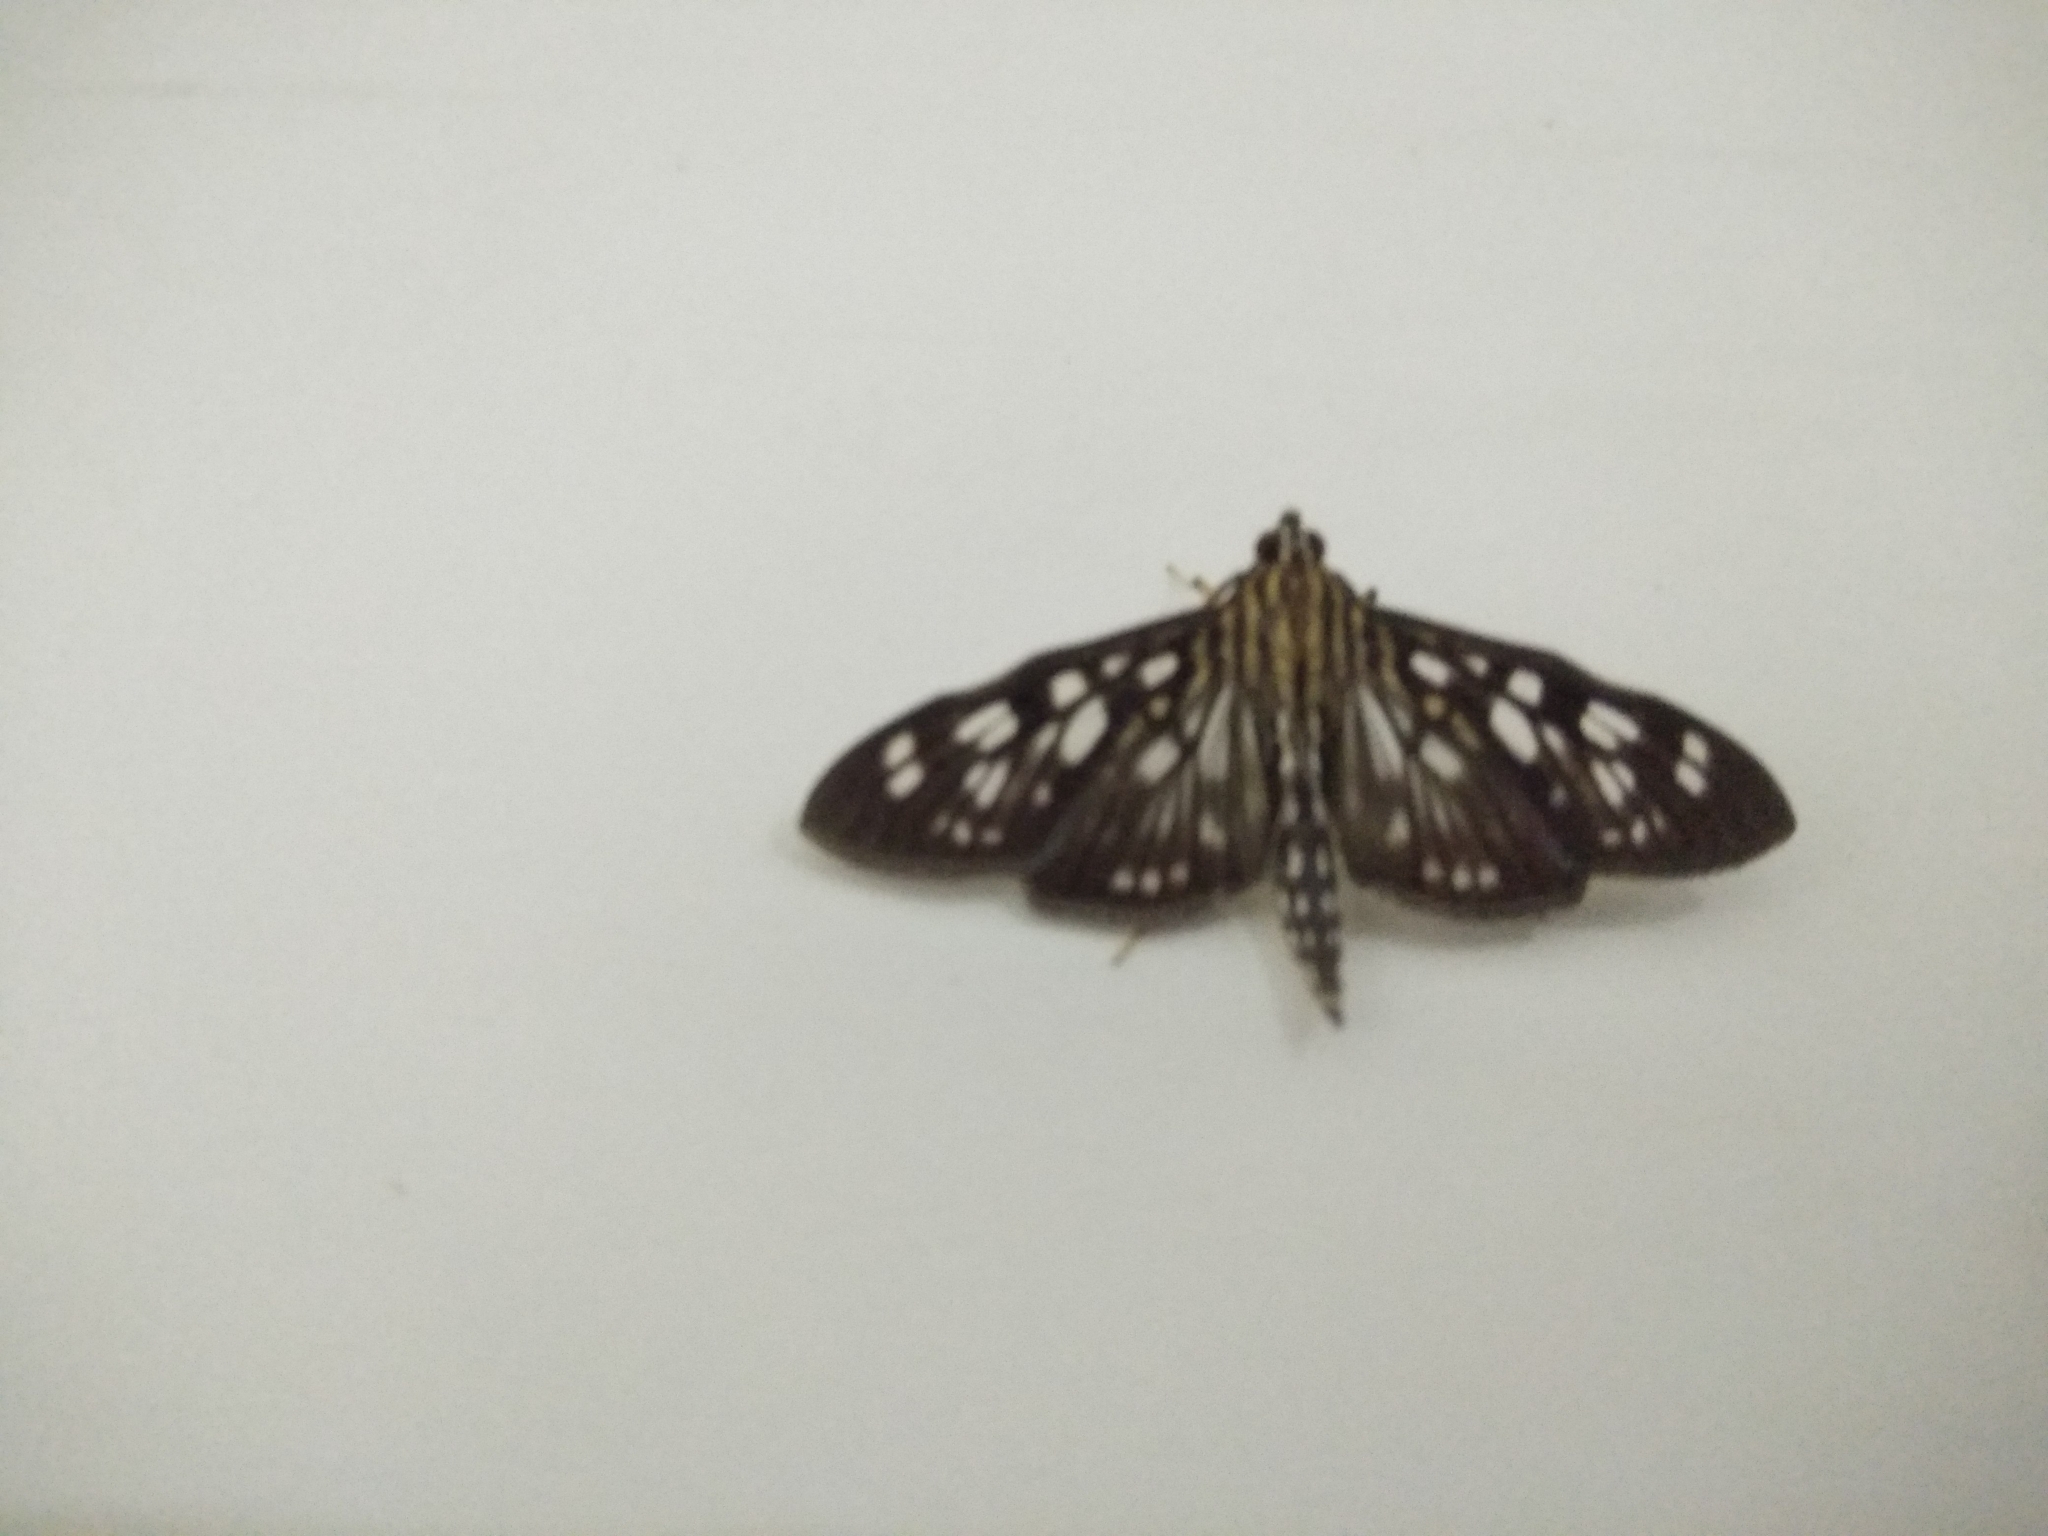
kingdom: Animalia
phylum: Arthropoda
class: Insecta
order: Lepidoptera
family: Crambidae
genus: Pygospila
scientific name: Pygospila costiflexalis
